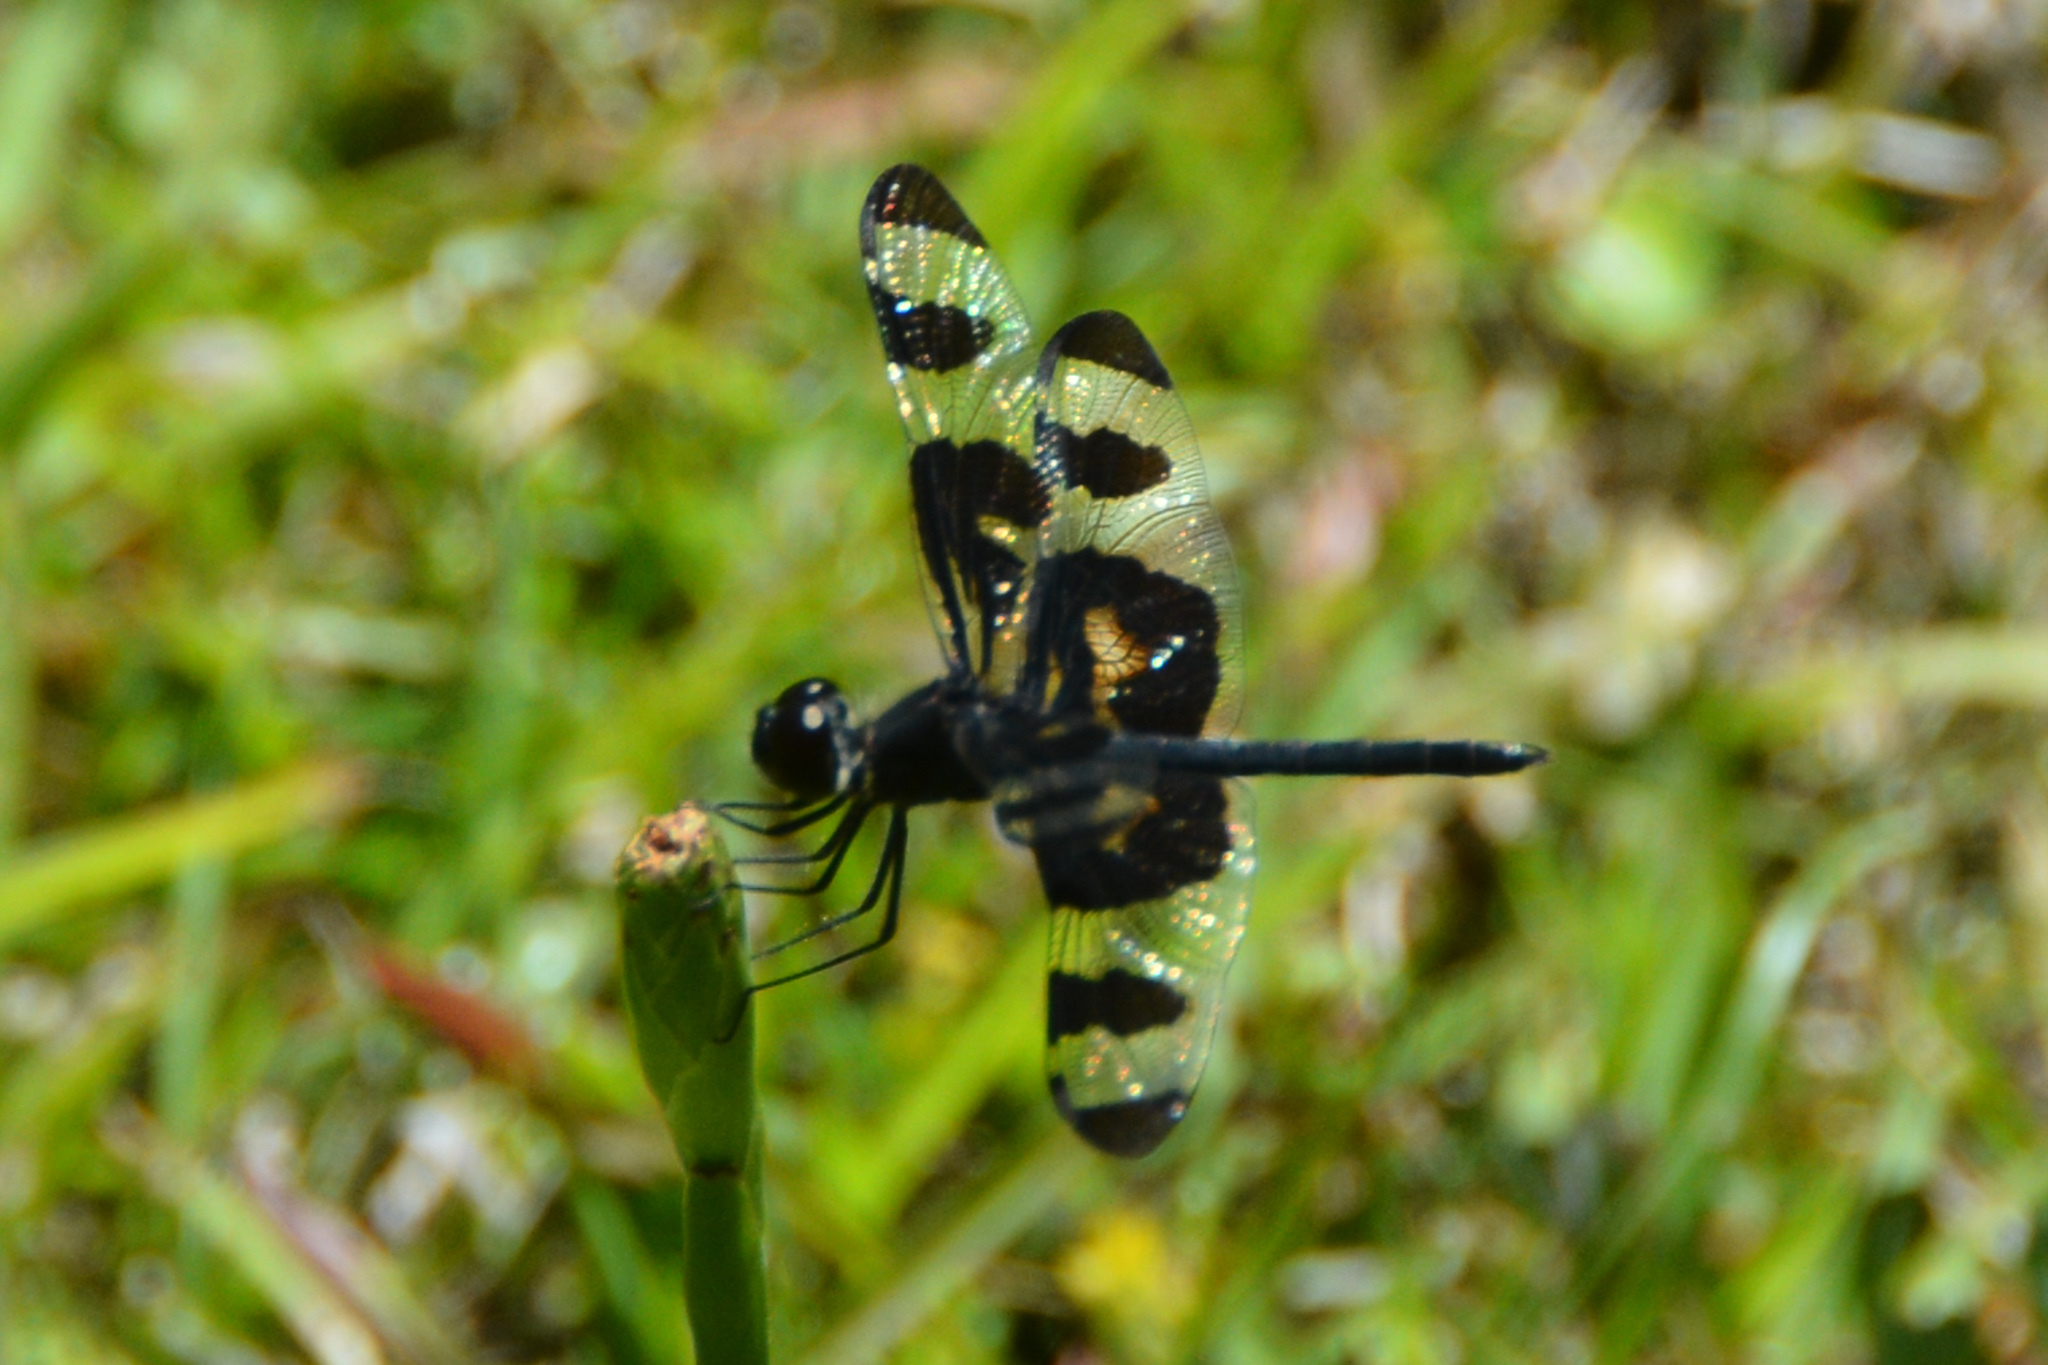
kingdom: Animalia
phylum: Arthropoda
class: Insecta
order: Odonata
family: Libellulidae
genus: Celithemis
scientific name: Celithemis fasciata
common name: Banded pennant
